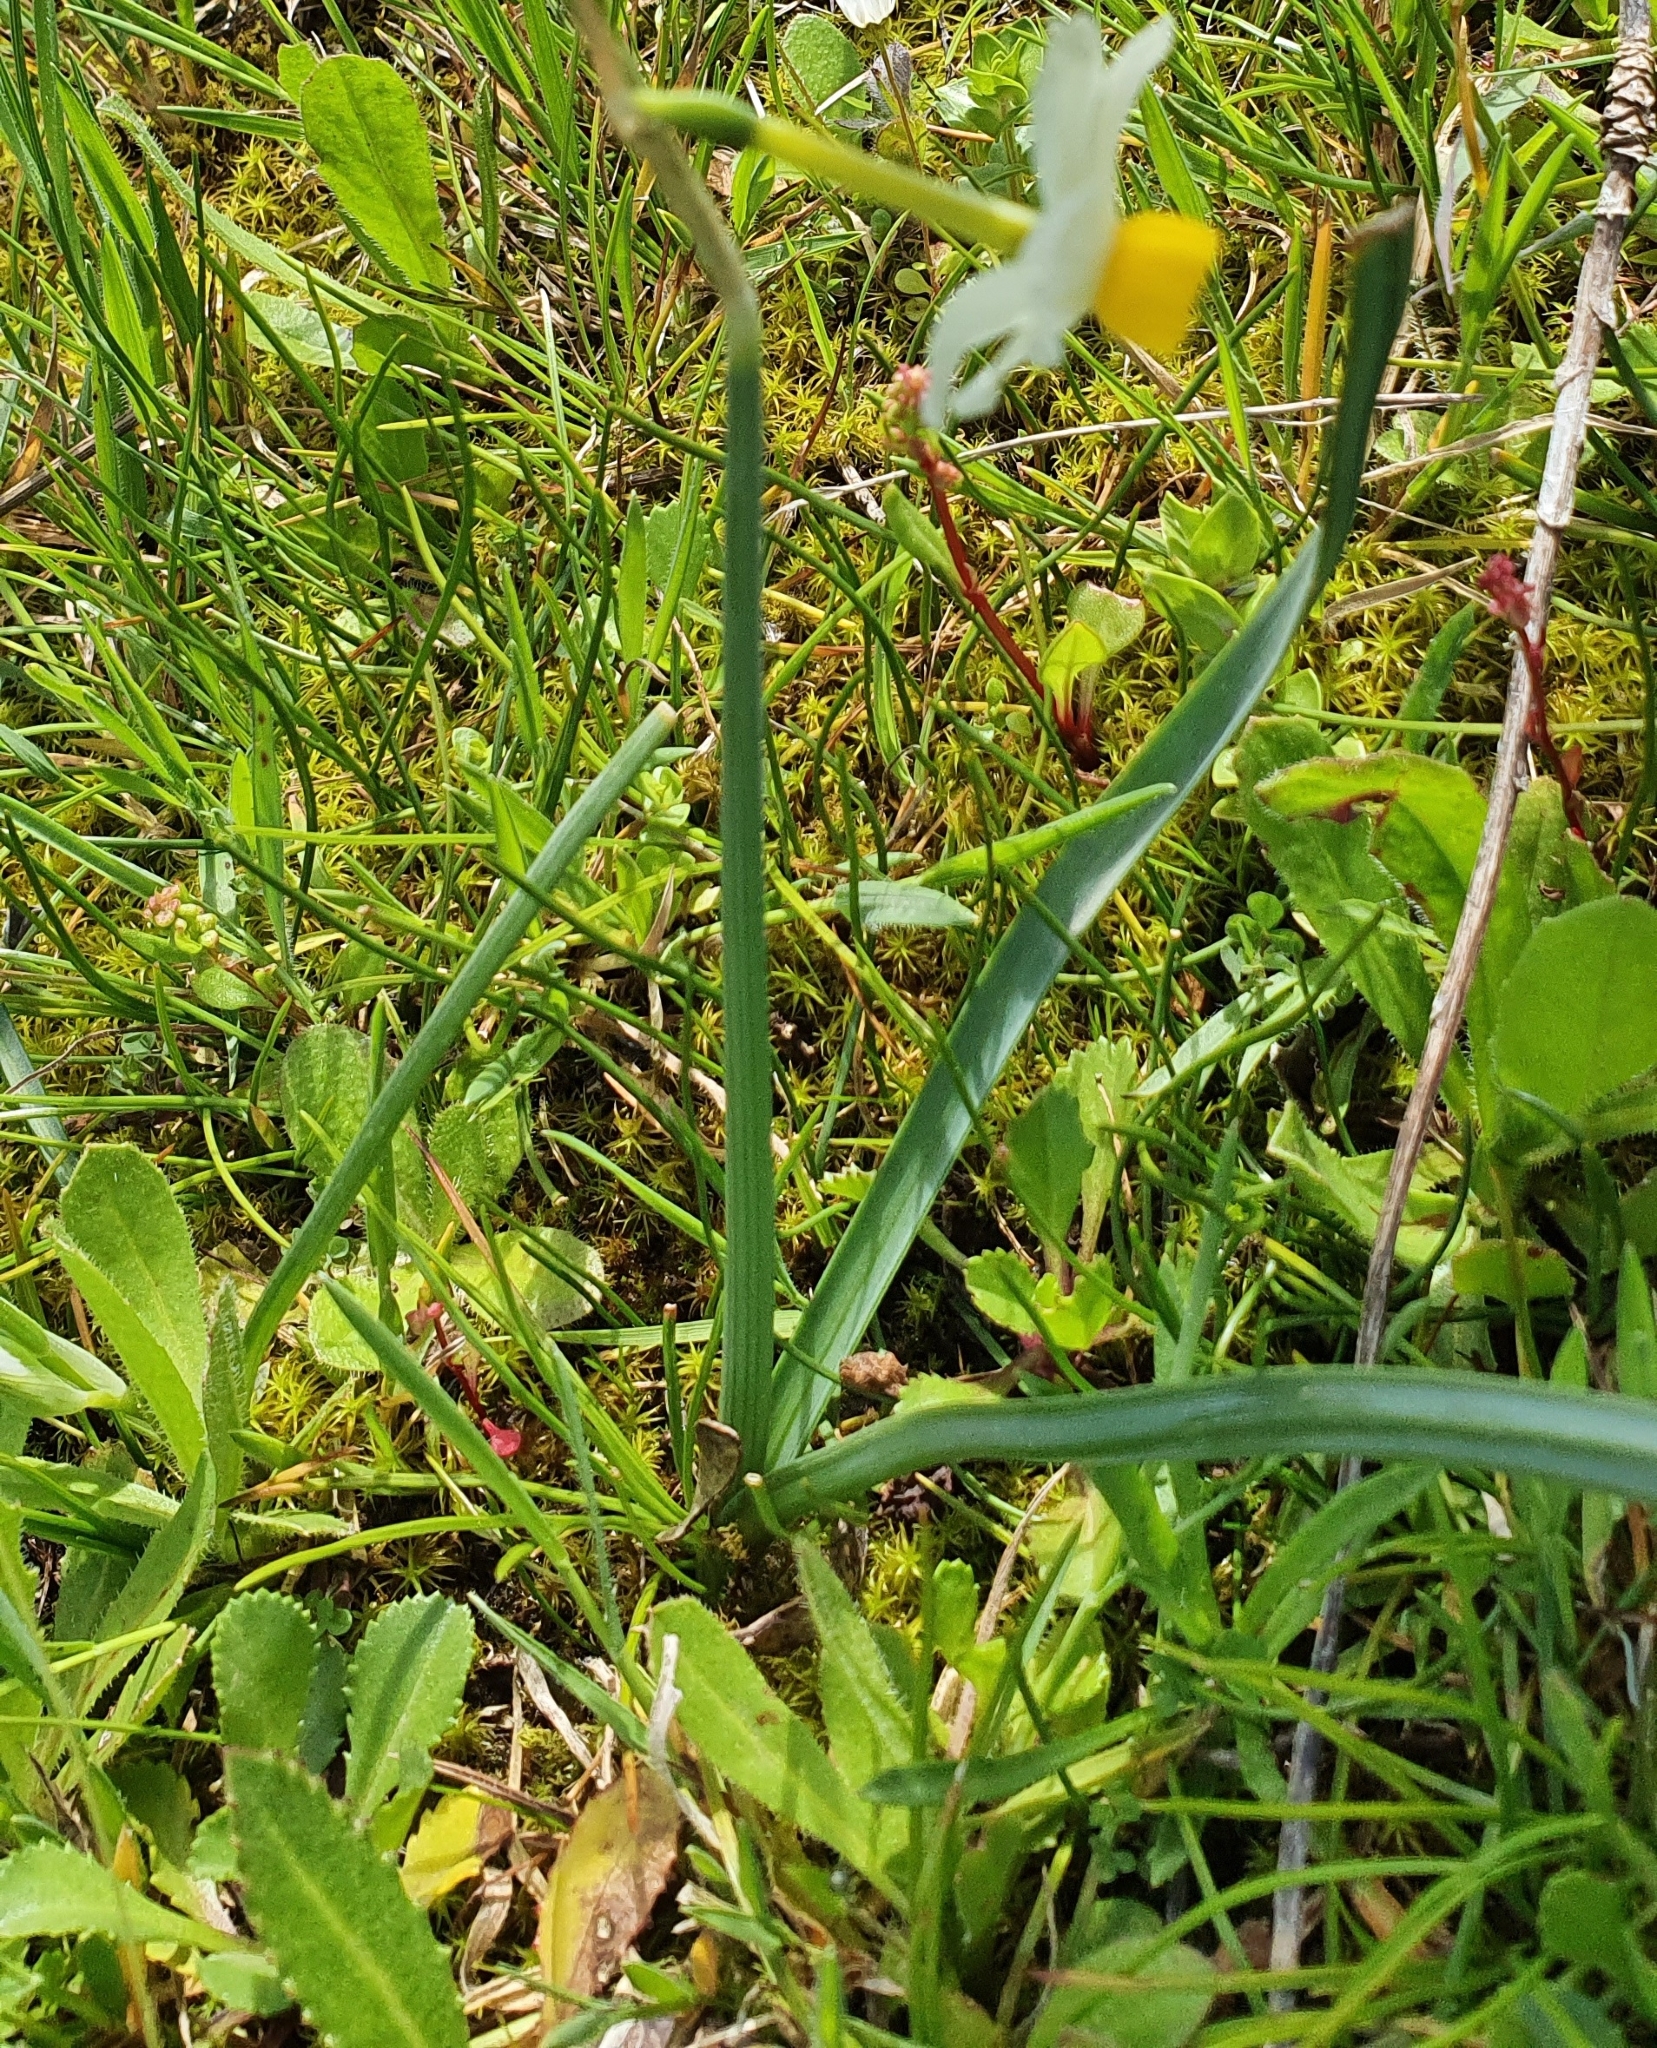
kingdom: Plantae
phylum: Tracheophyta
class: Liliopsida
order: Asparagales
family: Amaryllidaceae
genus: Narcissus
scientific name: Narcissus tazetta
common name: Bunch-flowered daffodil
